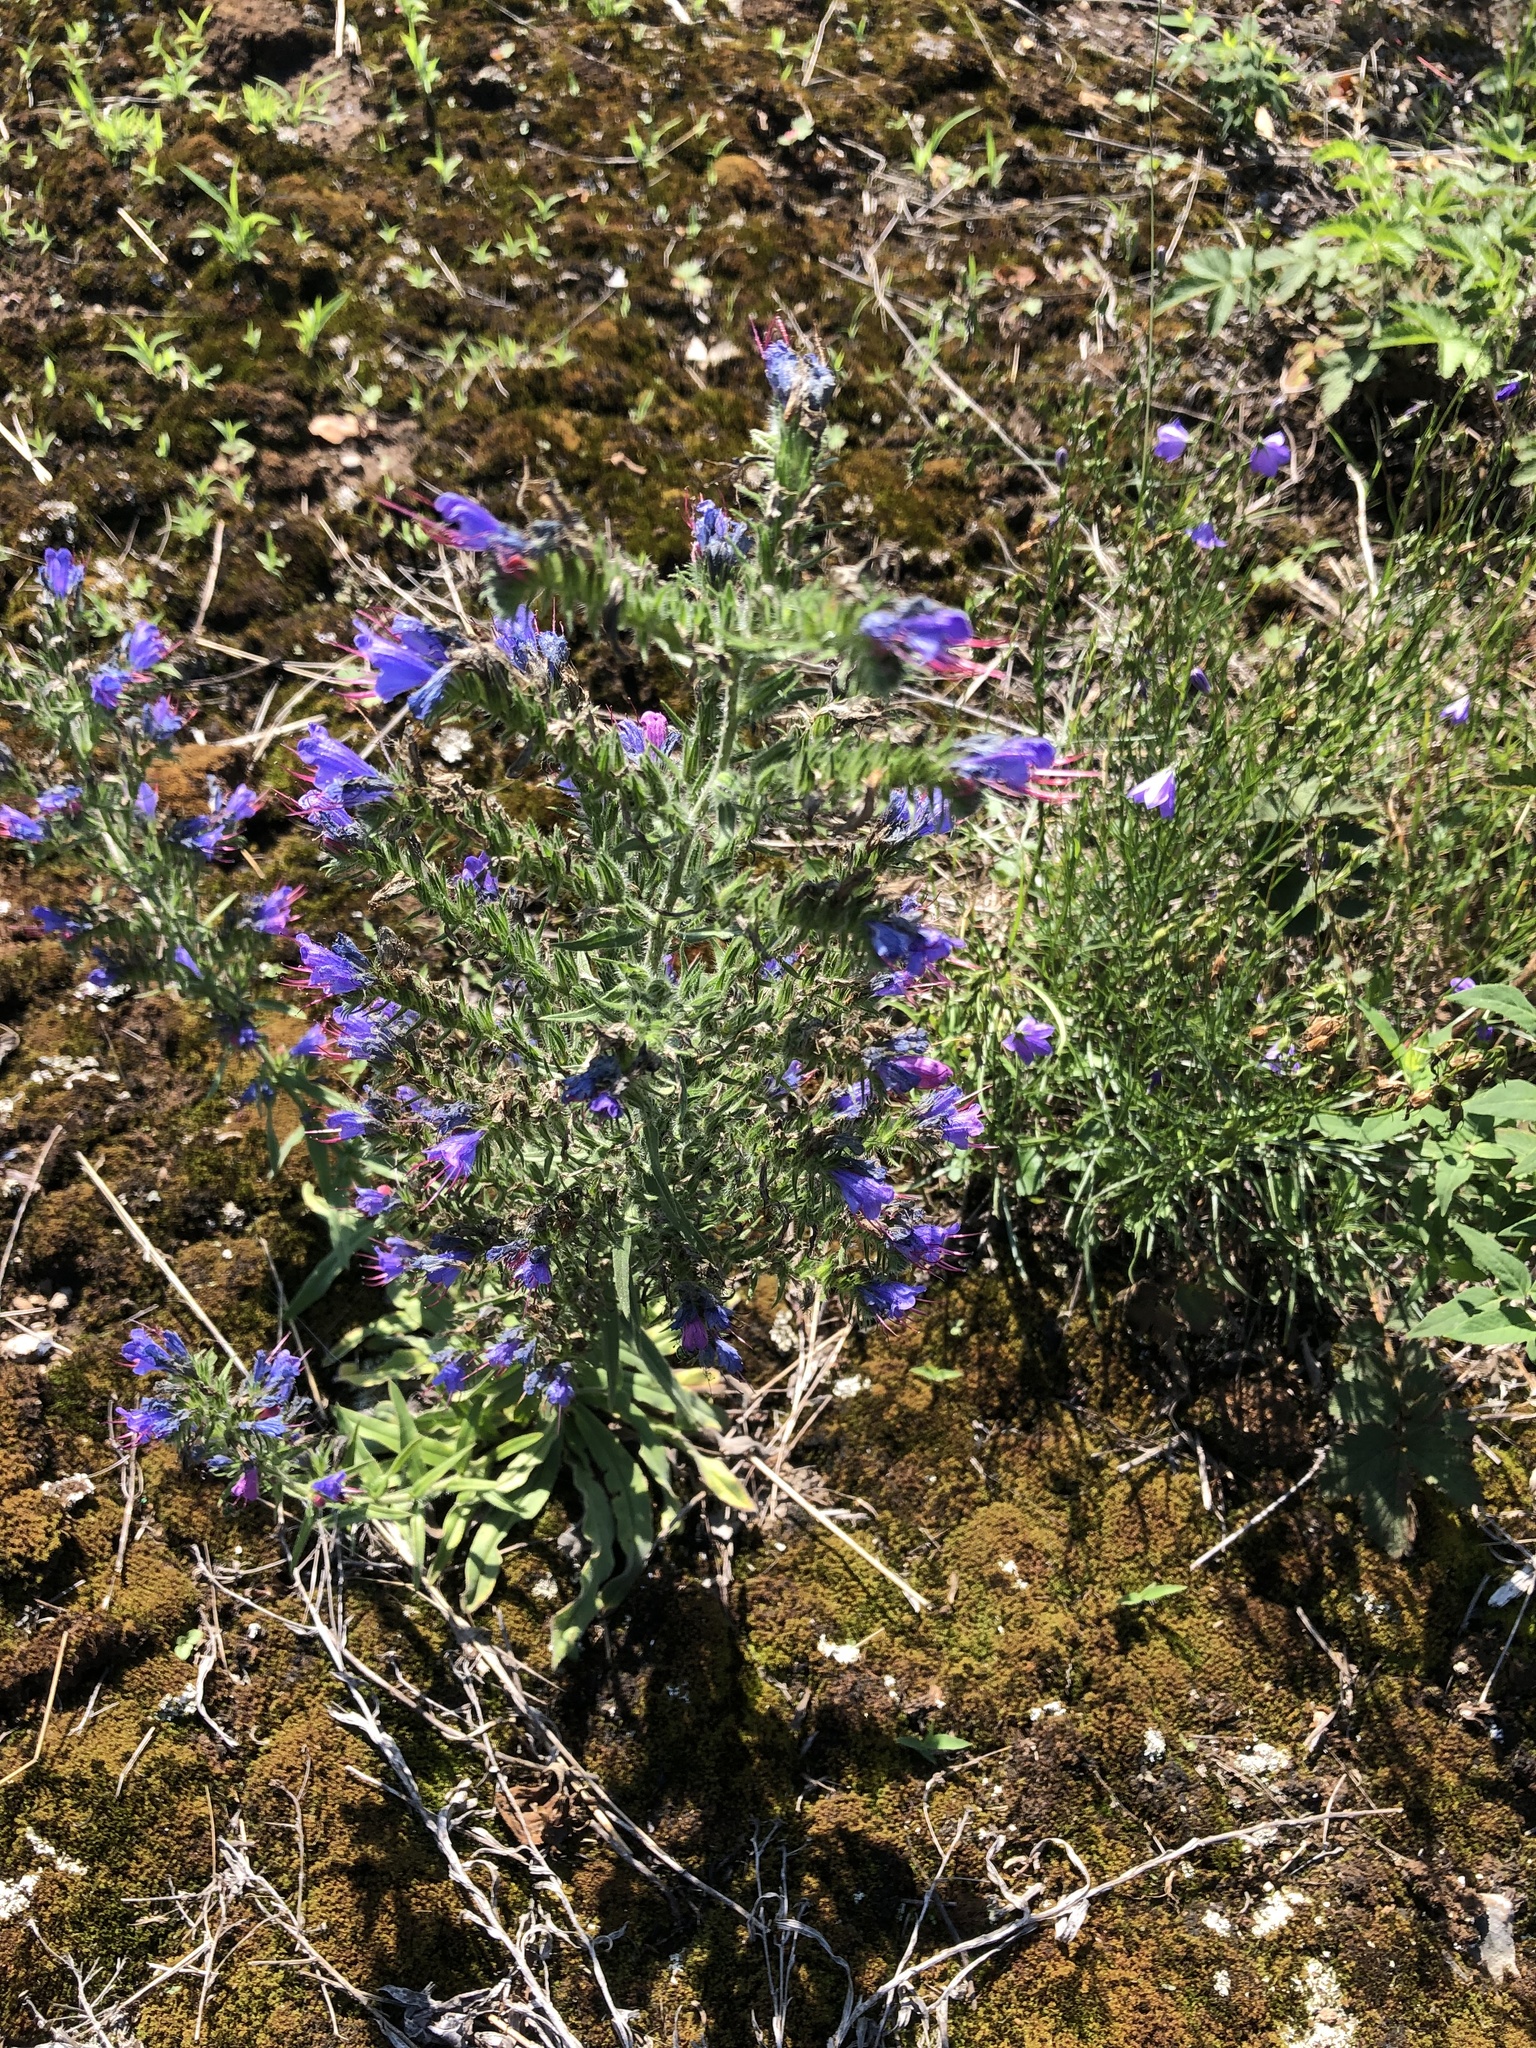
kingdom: Plantae
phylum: Tracheophyta
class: Magnoliopsida
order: Boraginales
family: Boraginaceae
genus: Echium
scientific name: Echium vulgare
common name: Common viper's bugloss
